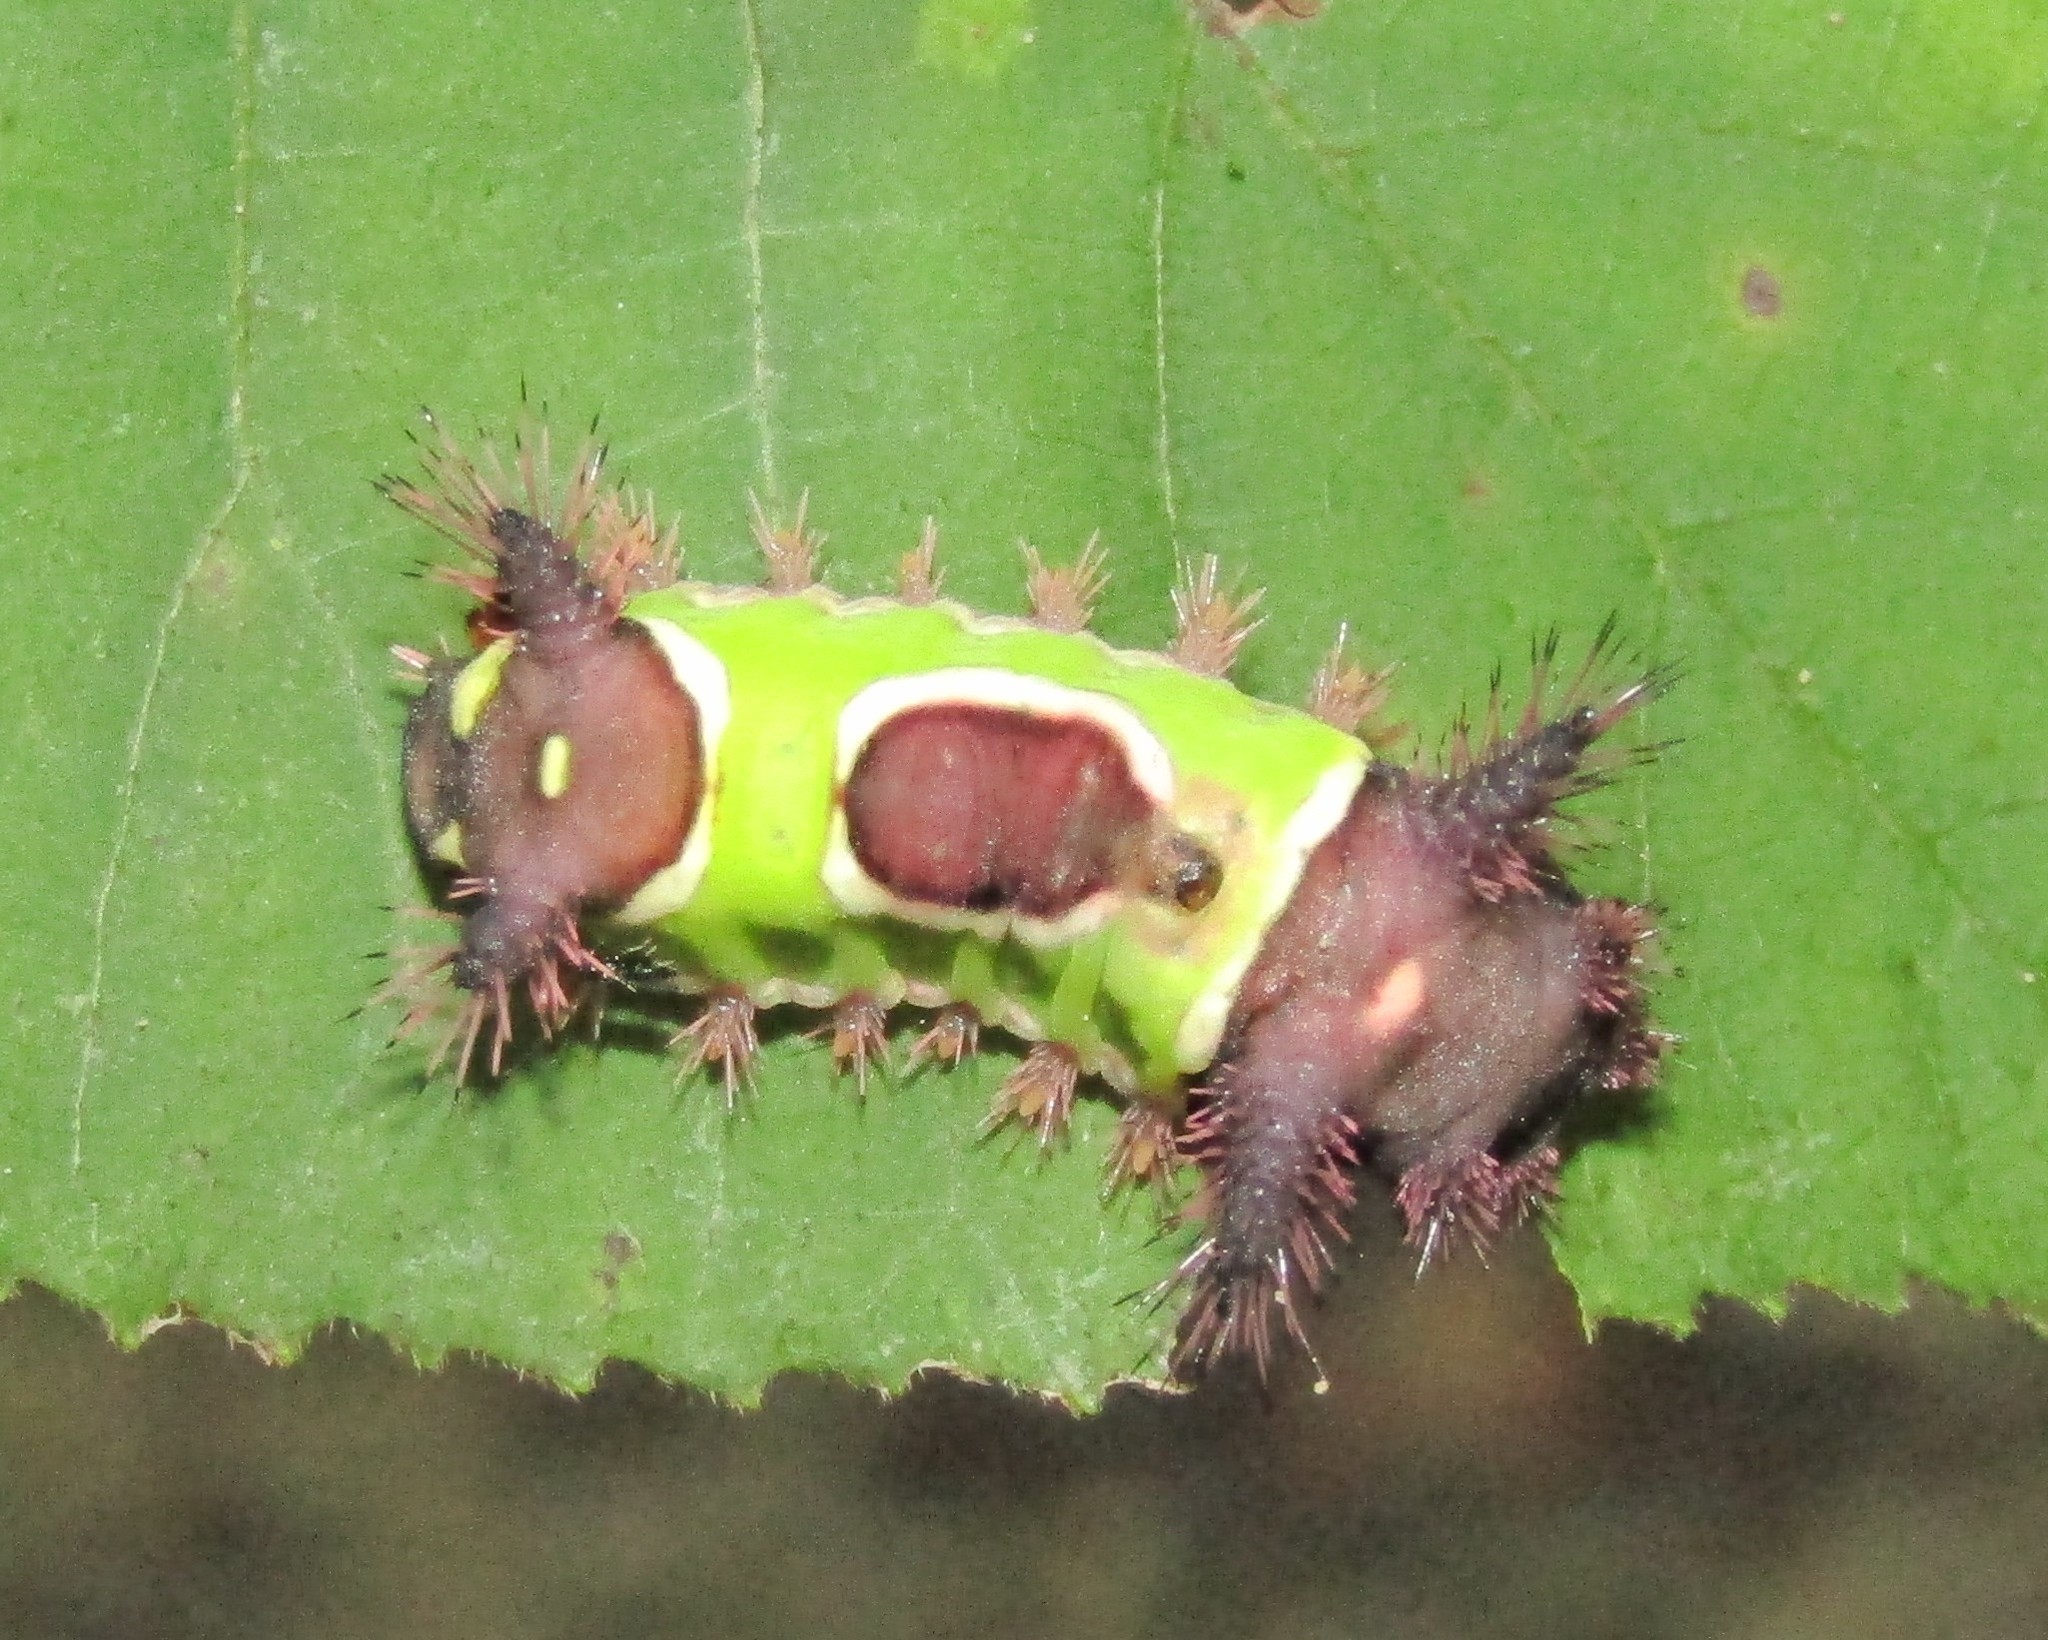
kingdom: Animalia
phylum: Arthropoda
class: Insecta
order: Lepidoptera
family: Limacodidae
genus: Acharia
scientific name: Acharia stimulea
